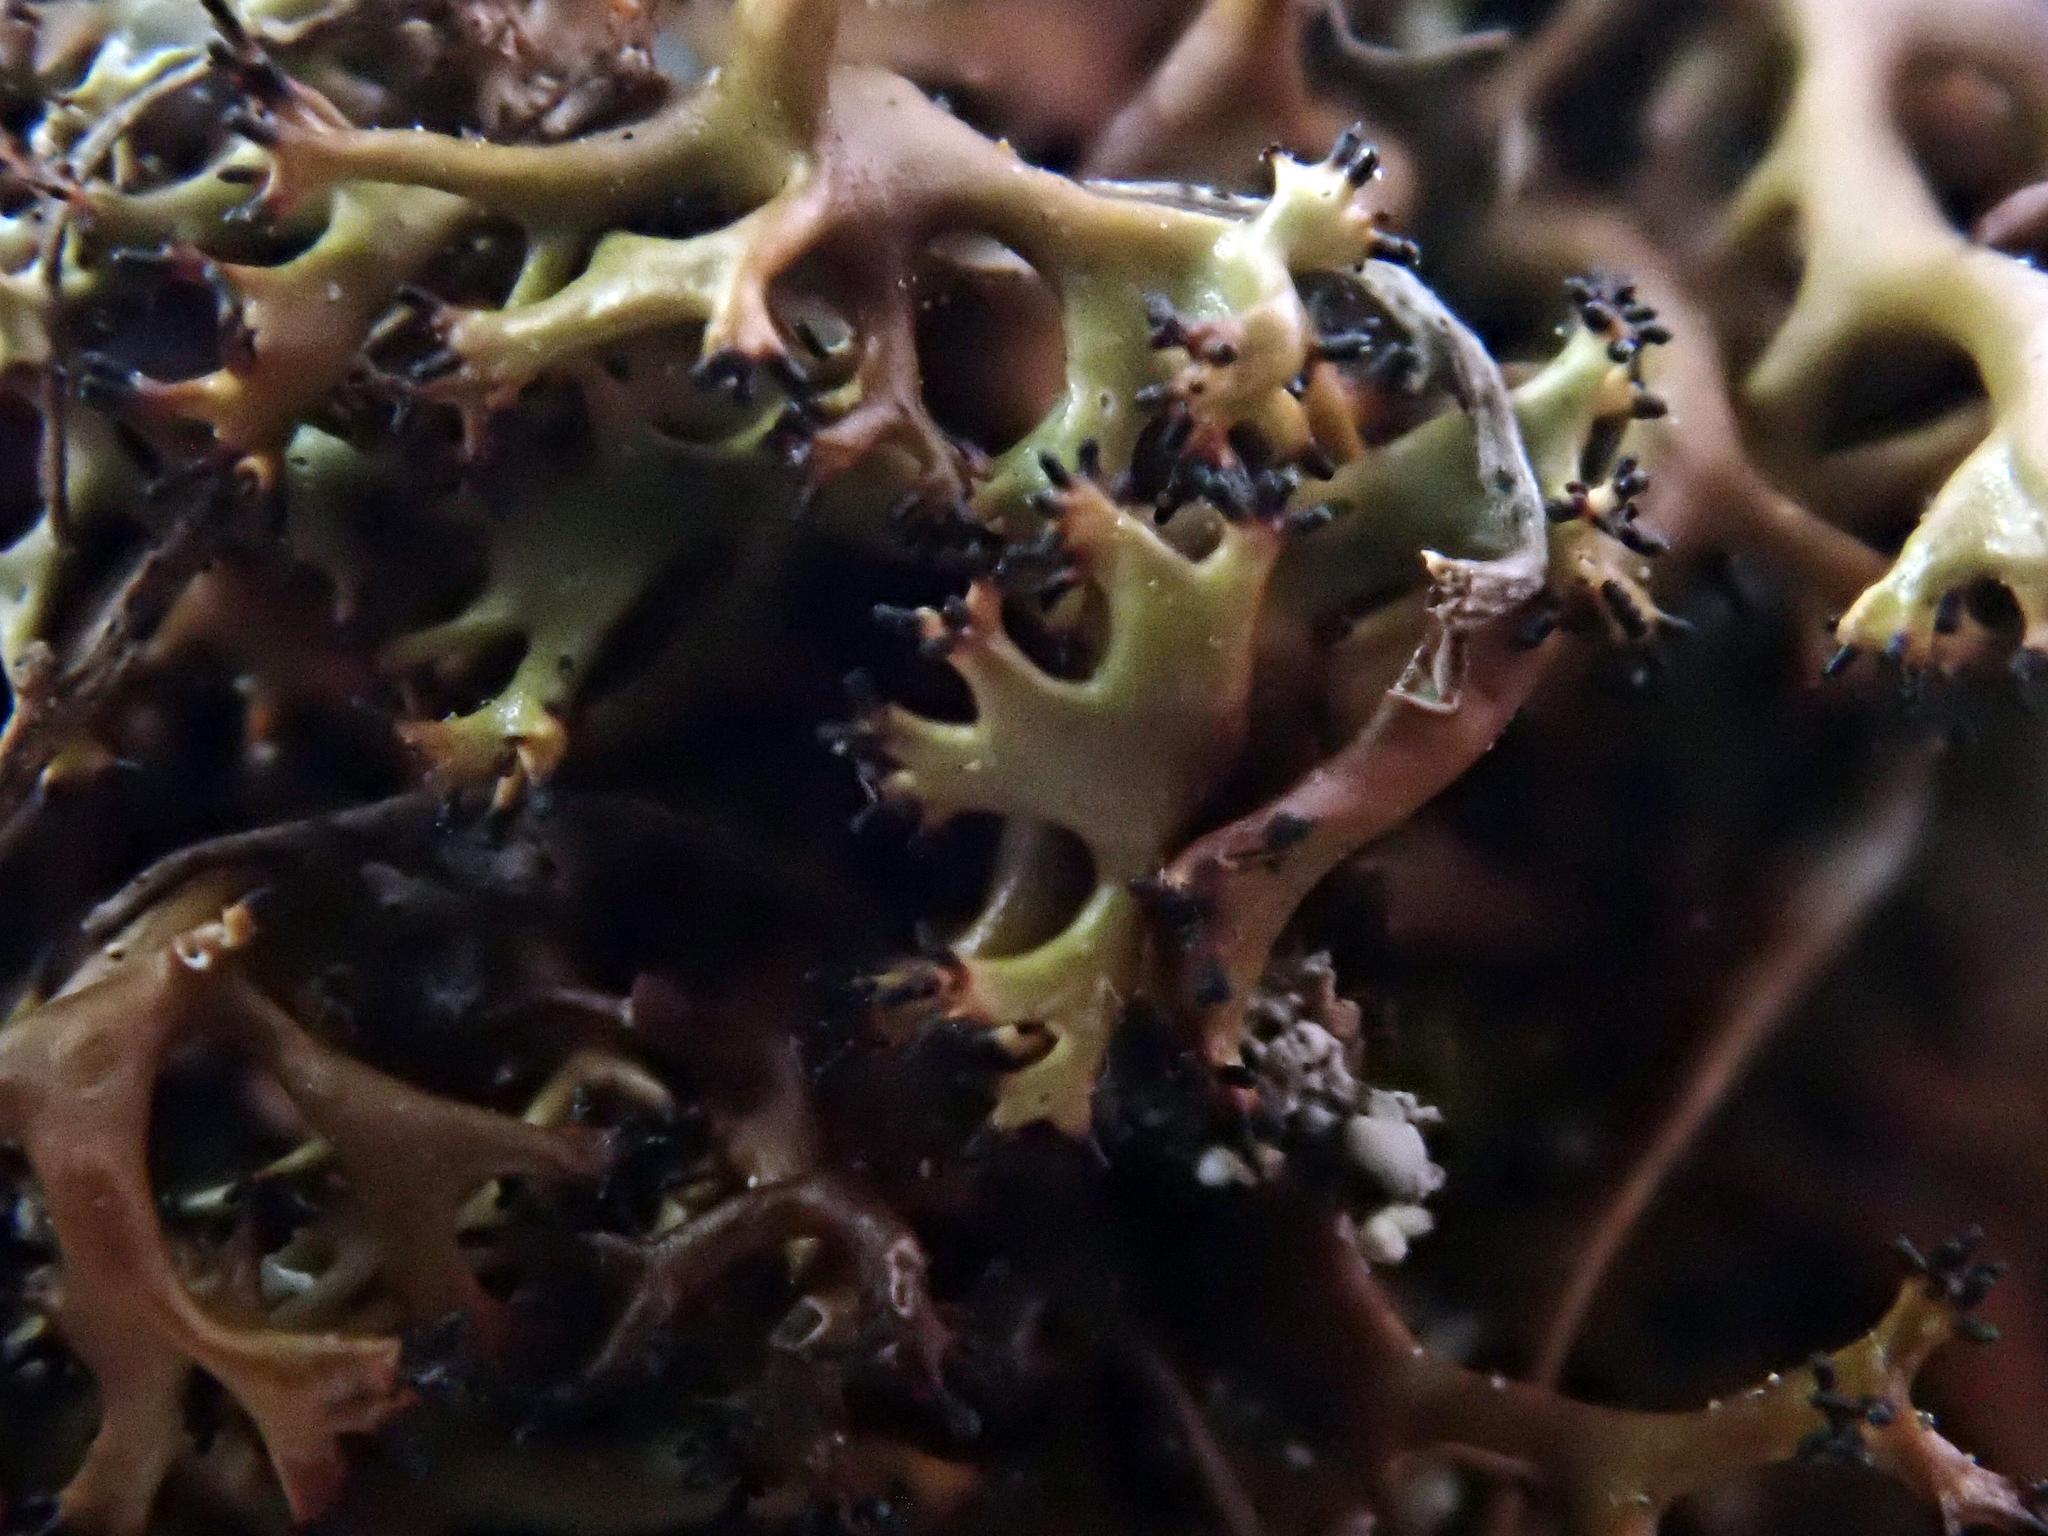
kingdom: Fungi
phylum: Ascomycota
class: Lecanoromycetes
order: Lecanorales
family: Cladoniaceae
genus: Cladia
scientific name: Cladia blanchonii
